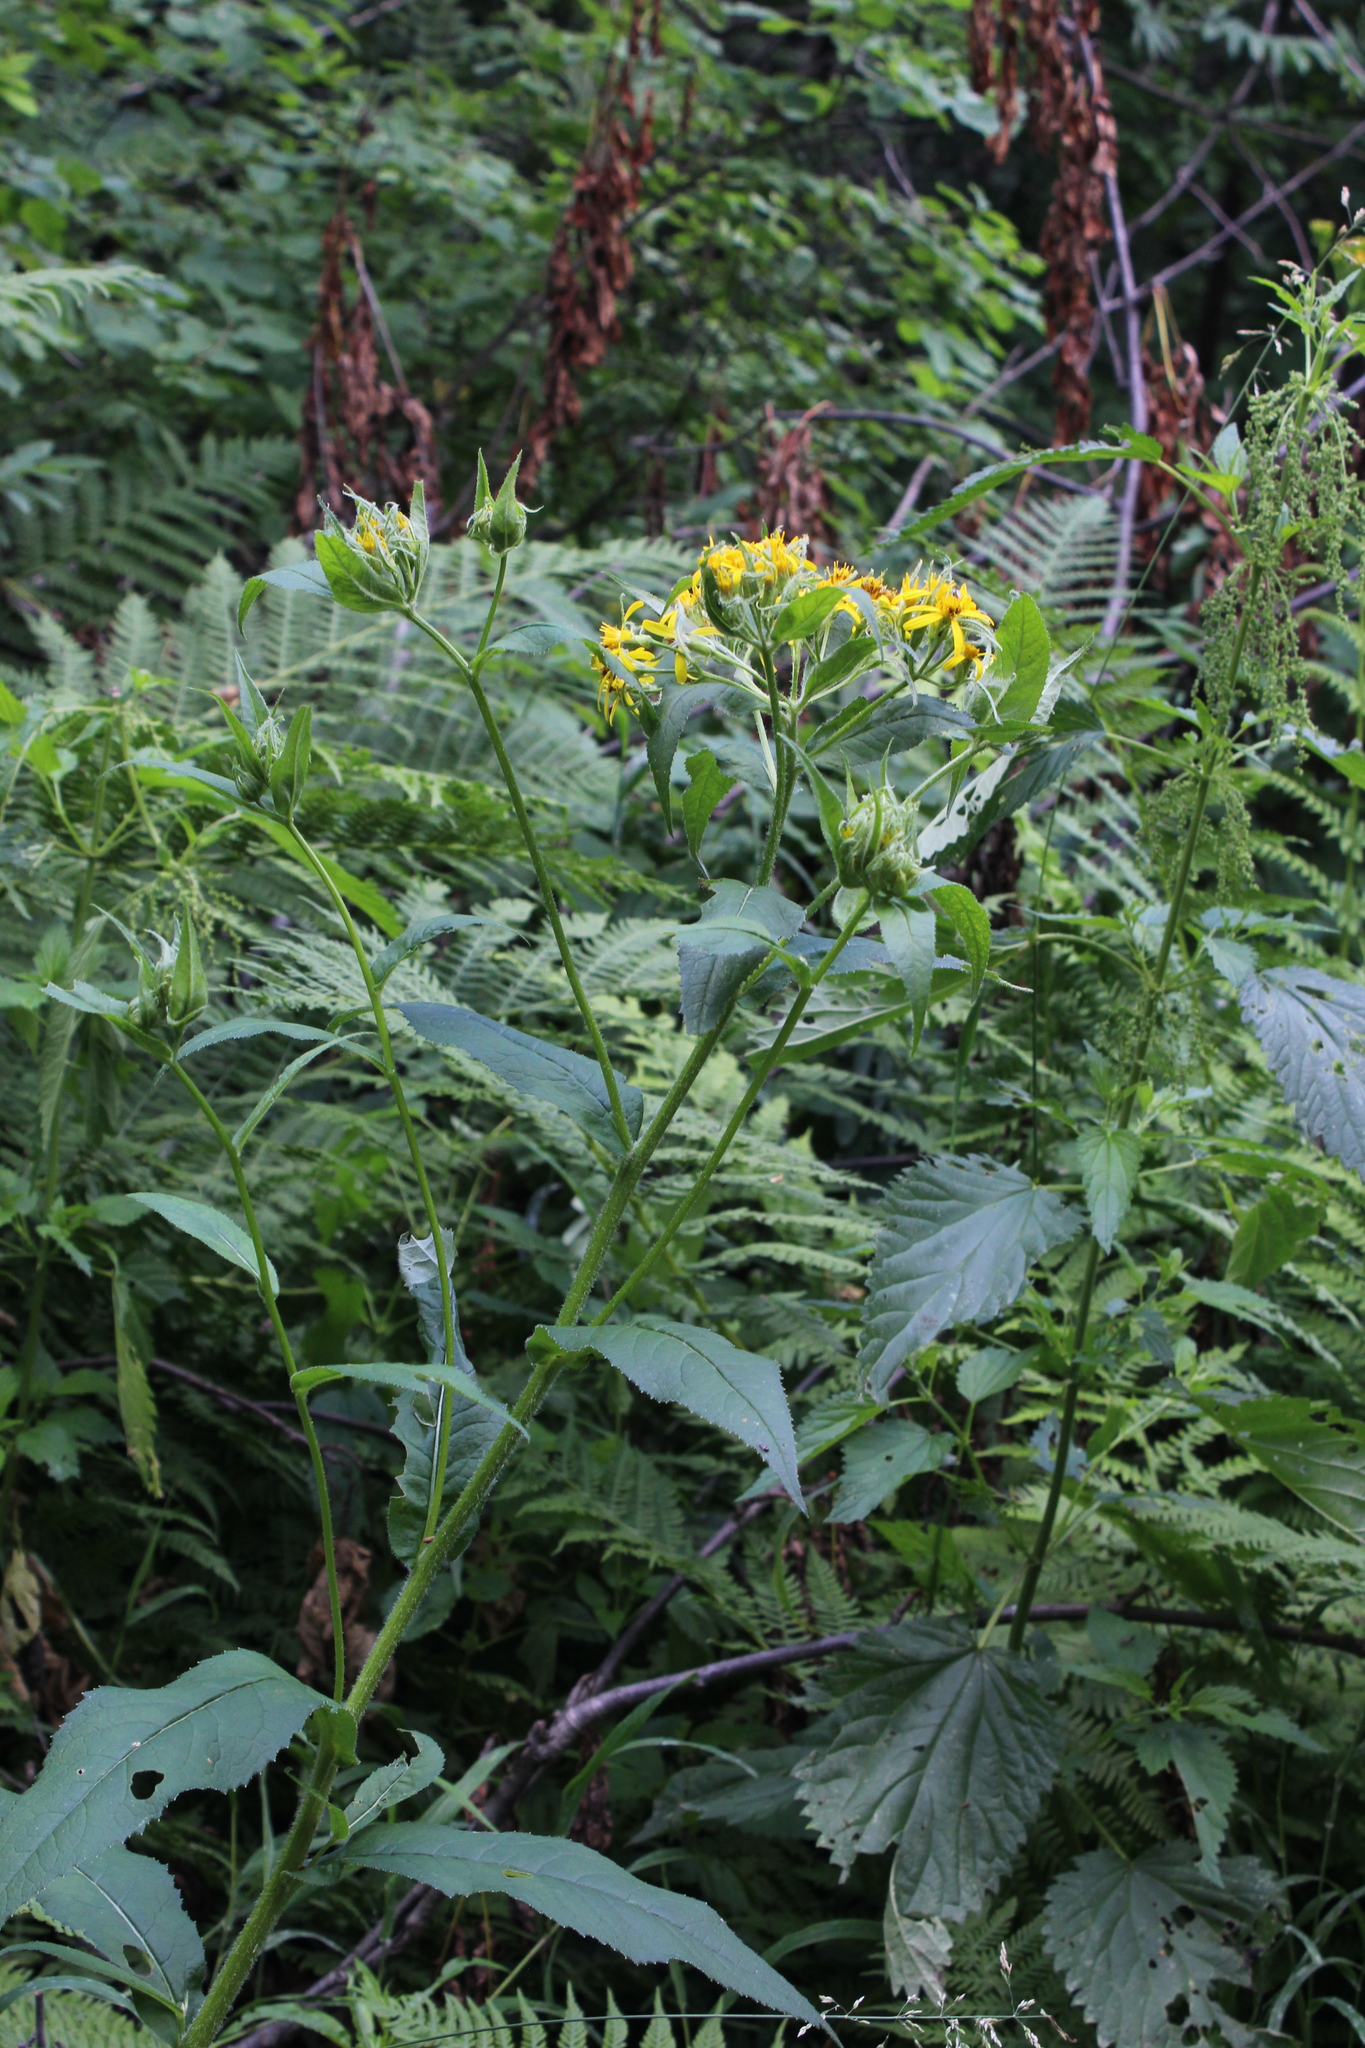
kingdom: Plantae
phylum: Tracheophyta
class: Magnoliopsida
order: Asterales
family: Asteraceae
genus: Senecio
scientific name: Senecio propinquus
